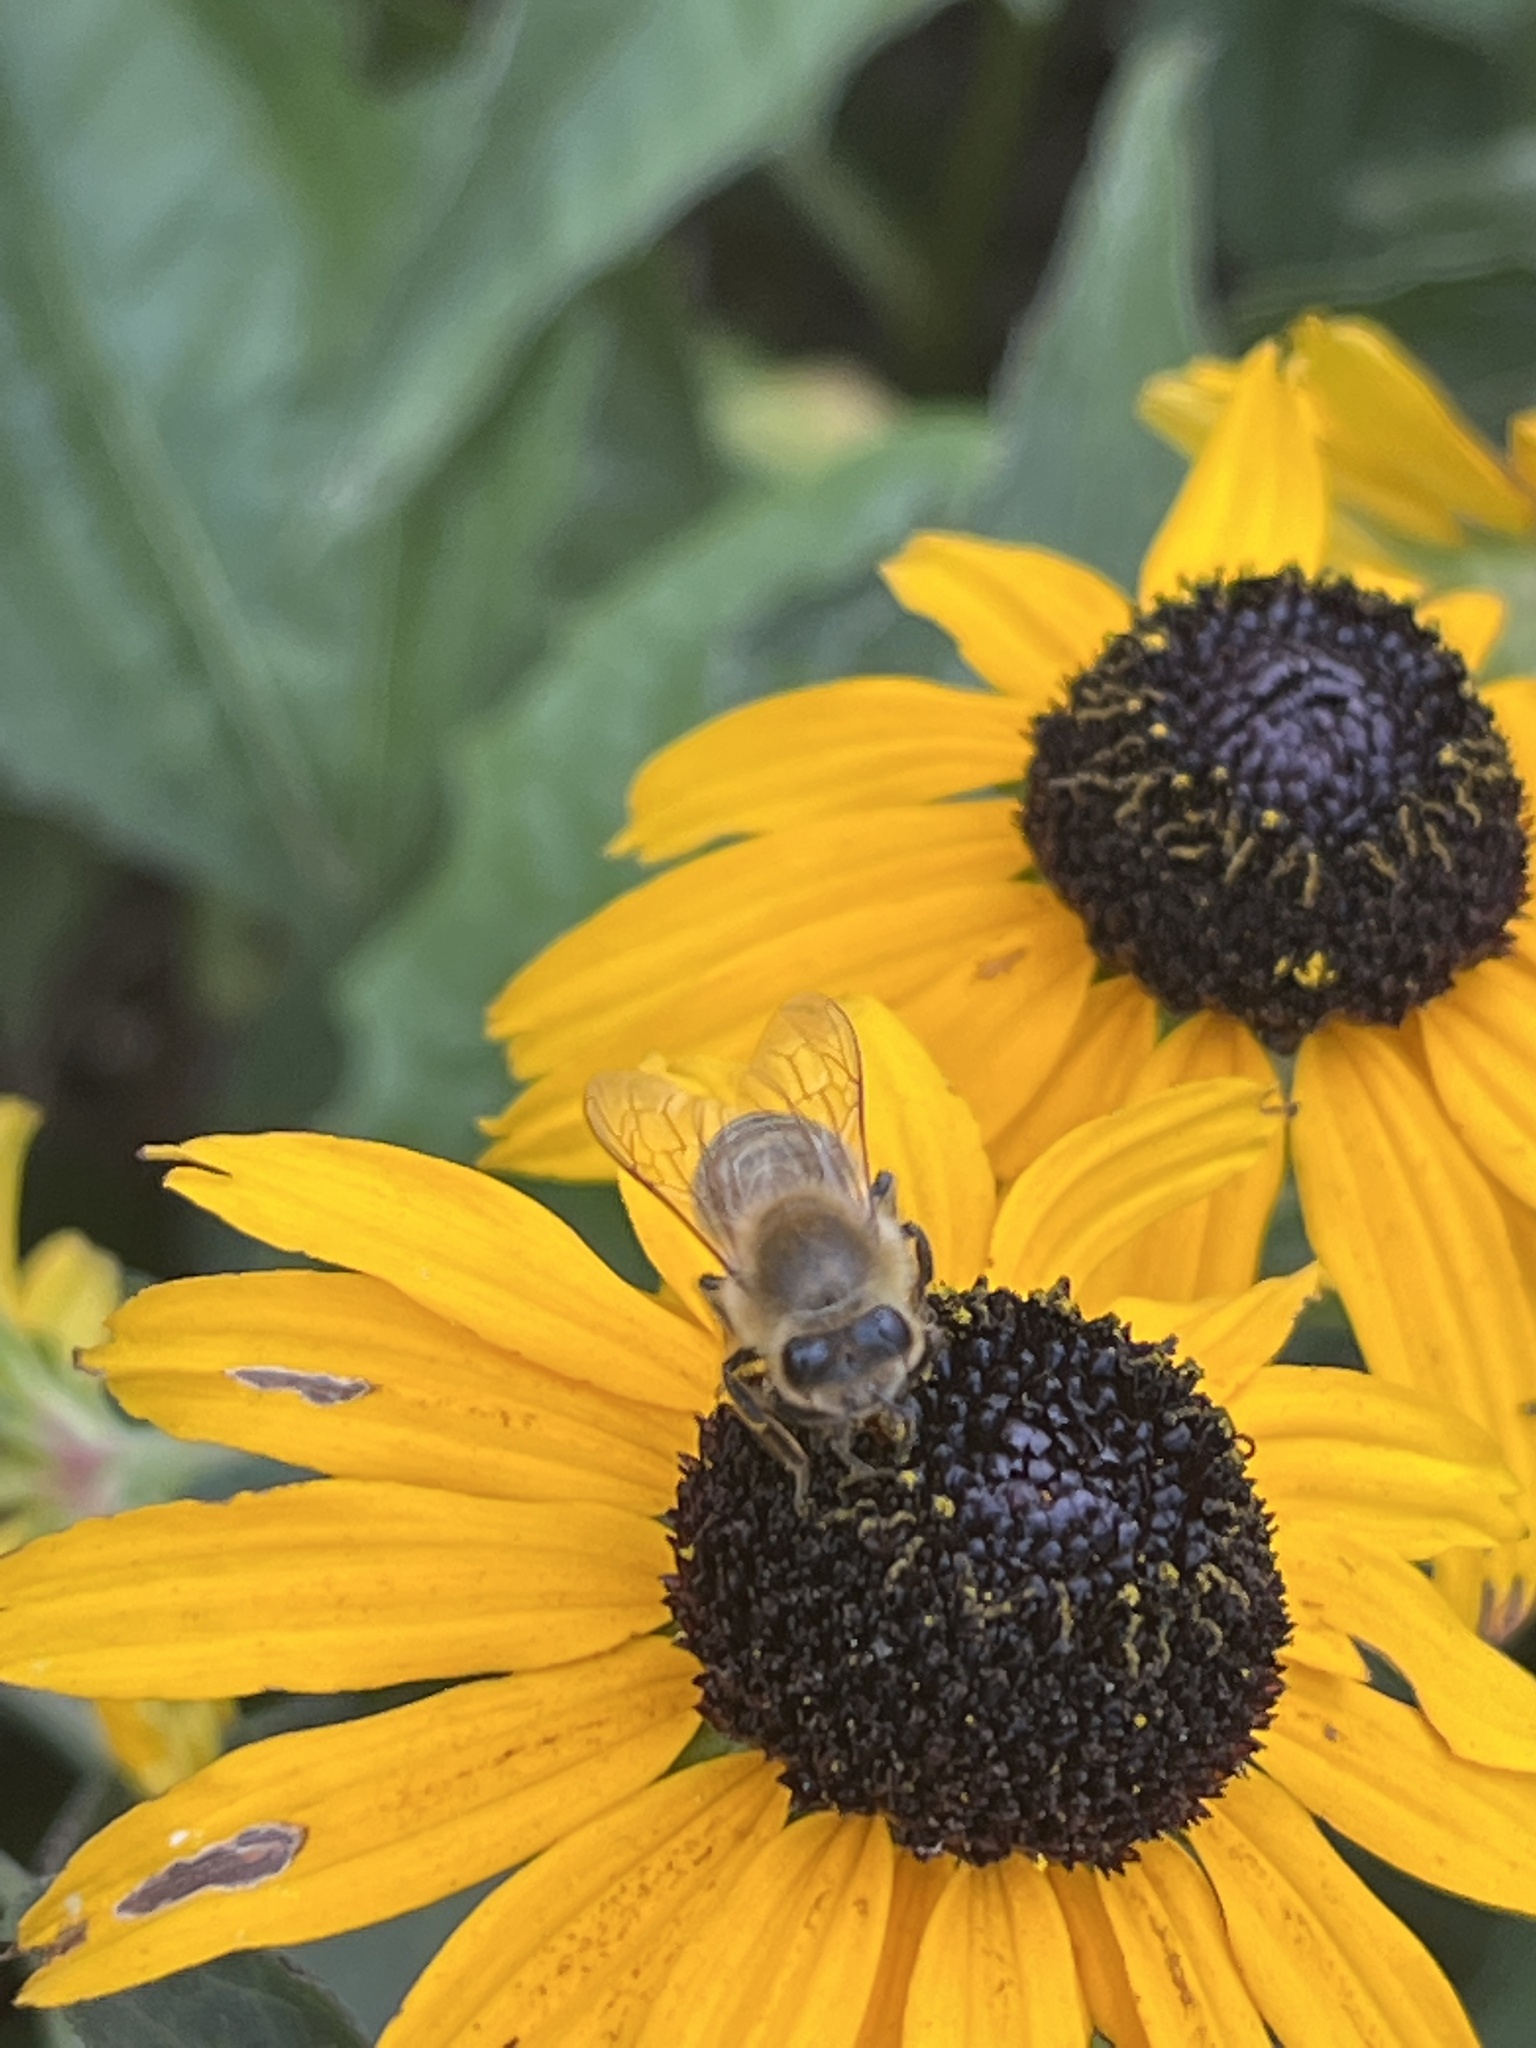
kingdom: Animalia
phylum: Arthropoda
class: Insecta
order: Hymenoptera
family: Apidae
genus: Apis
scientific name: Apis mellifera
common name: Honey bee
